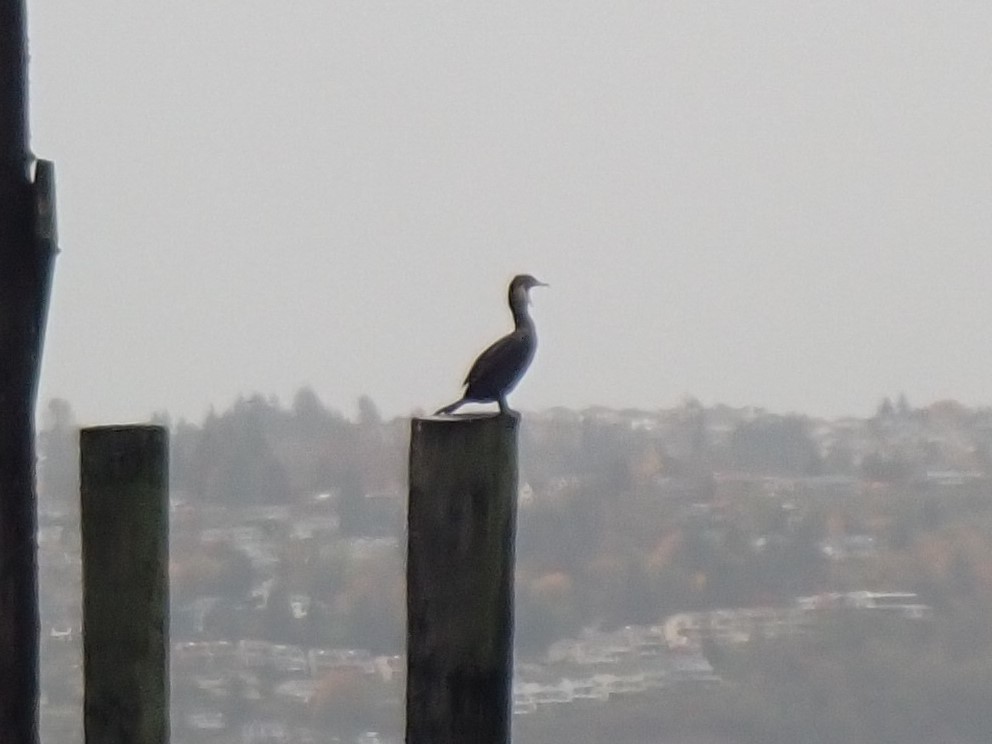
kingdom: Animalia
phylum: Chordata
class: Aves
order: Suliformes
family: Phalacrocoracidae
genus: Phalacrocorax
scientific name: Phalacrocorax auritus
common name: Double-crested cormorant
